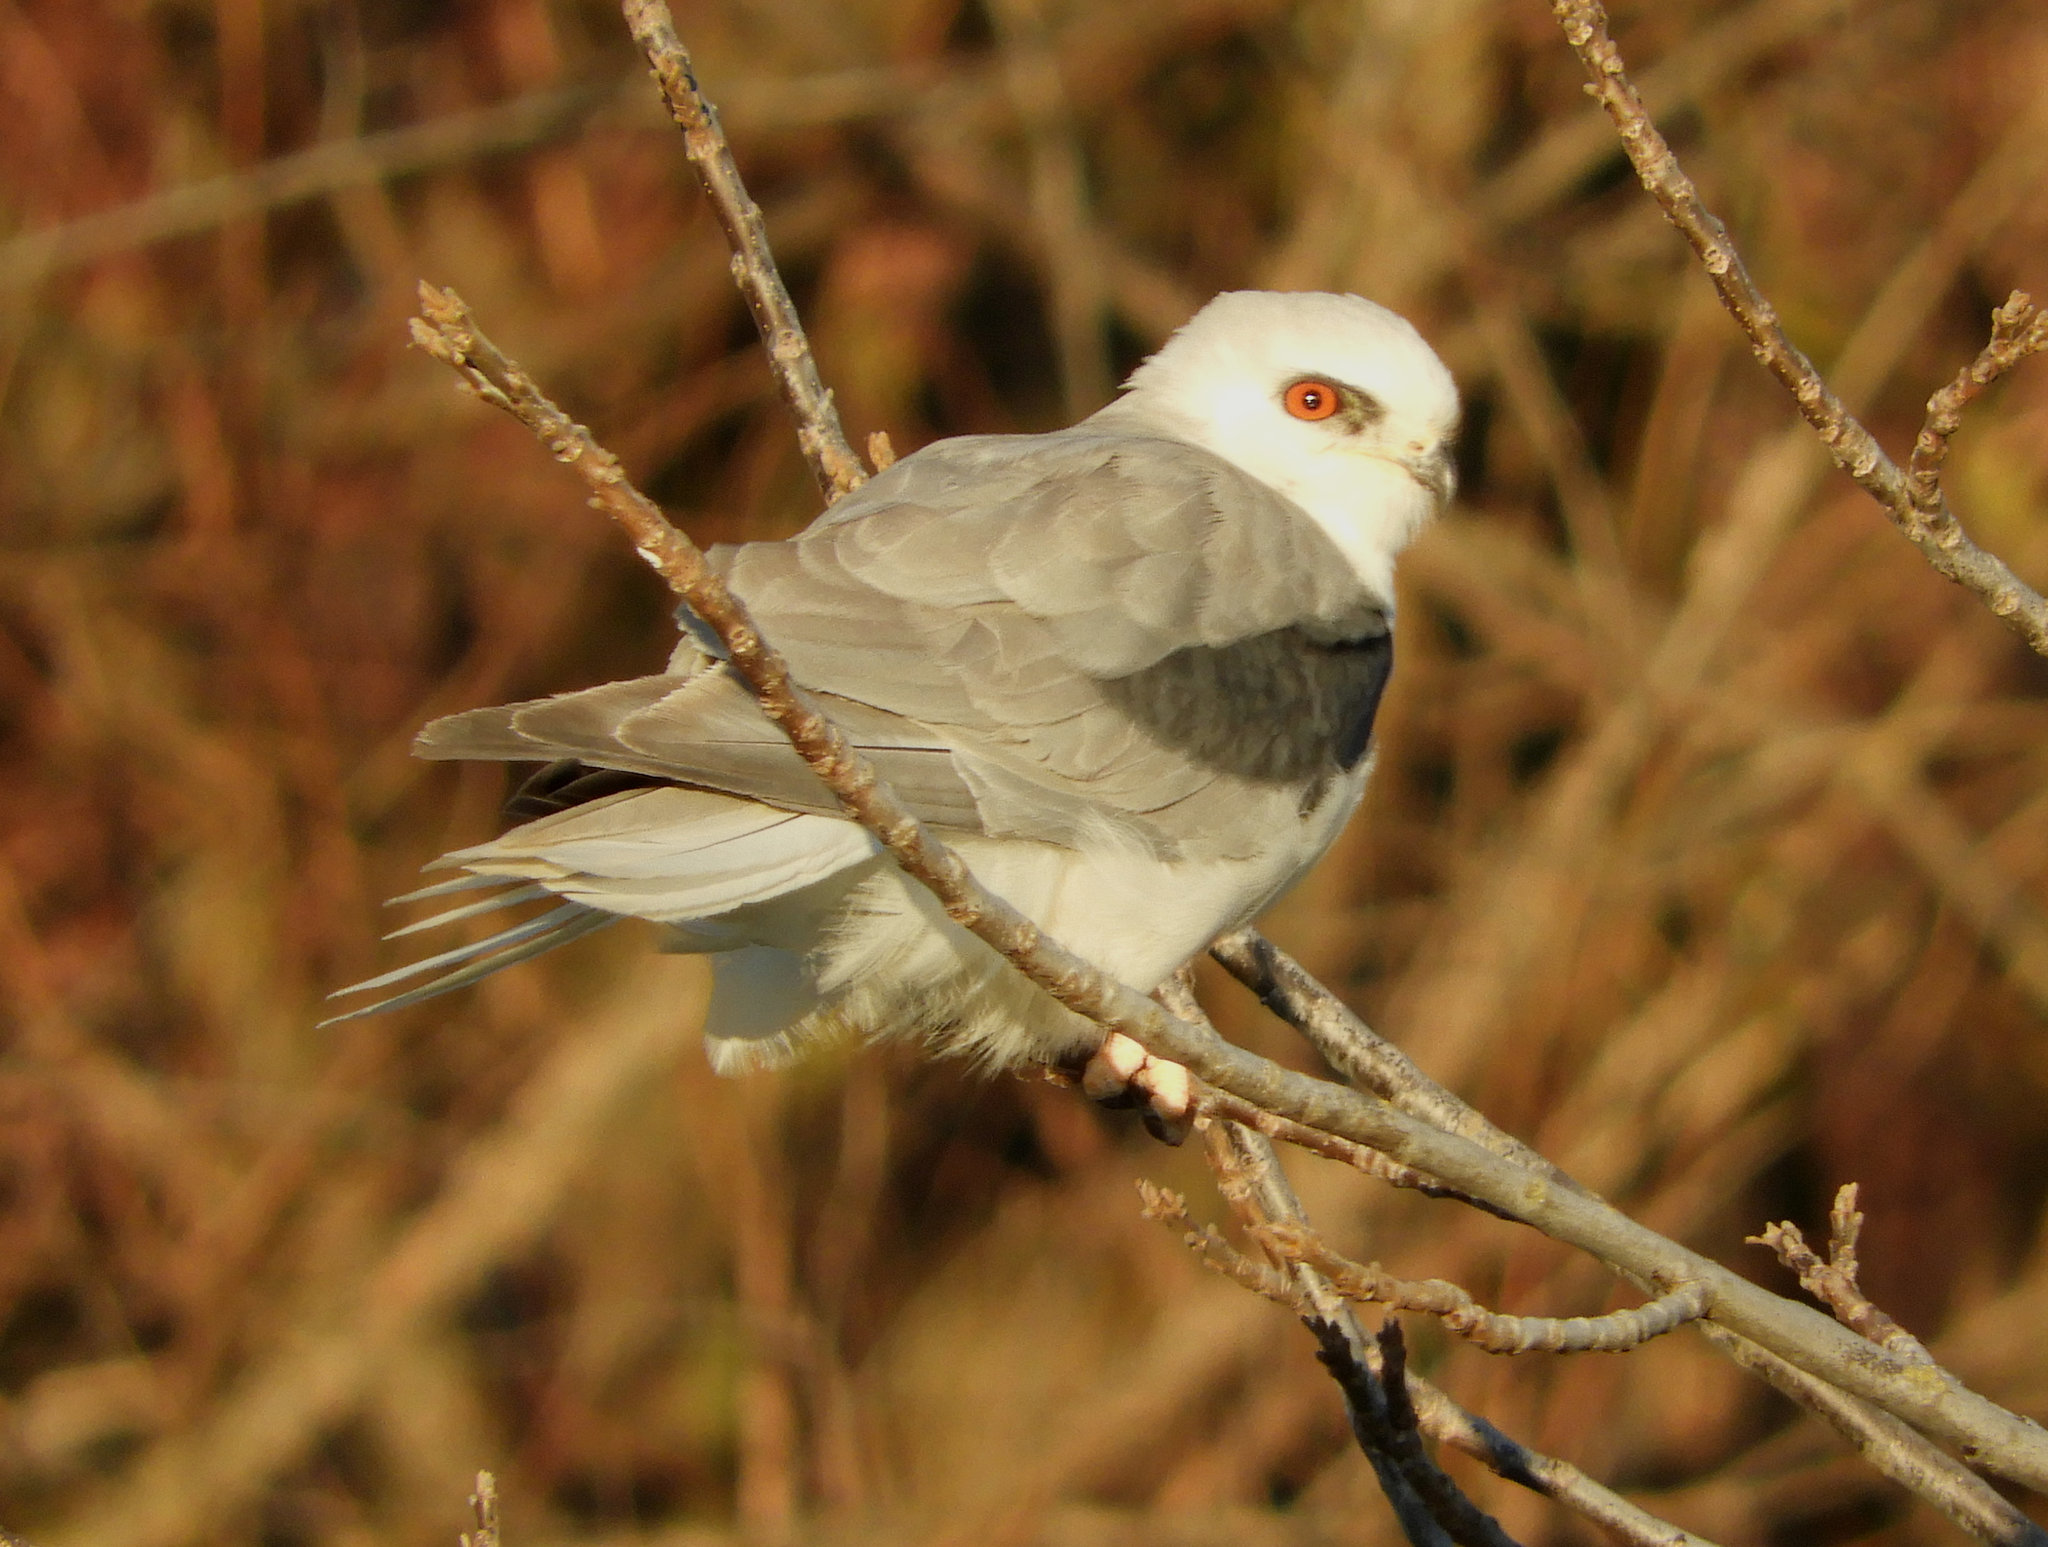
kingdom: Animalia
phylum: Chordata
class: Aves
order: Accipitriformes
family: Accipitridae
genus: Elanus
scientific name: Elanus leucurus
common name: White-tailed kite
